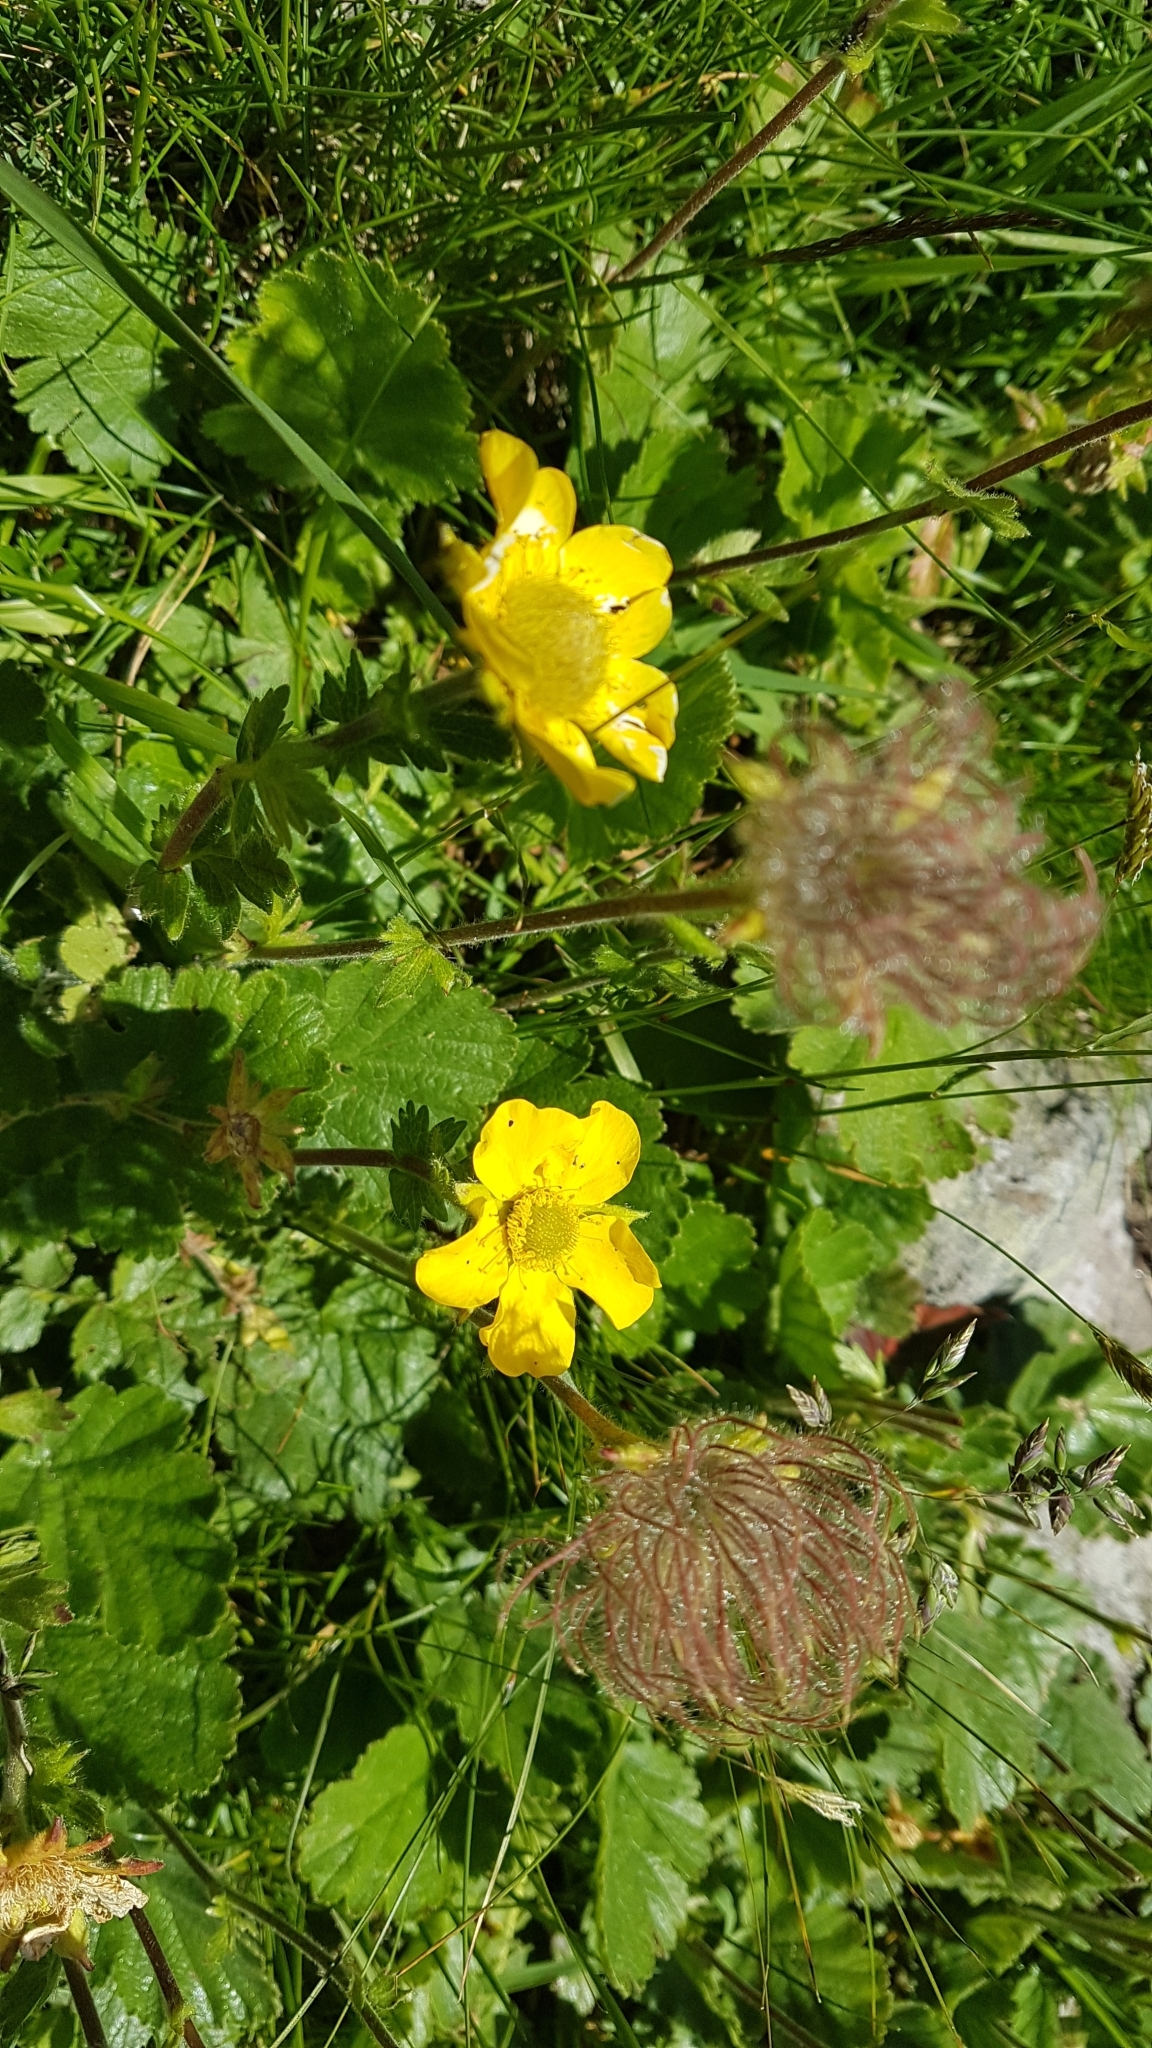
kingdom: Plantae
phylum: Tracheophyta
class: Magnoliopsida
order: Rosales
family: Rosaceae
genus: Geum
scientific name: Geum montanum
